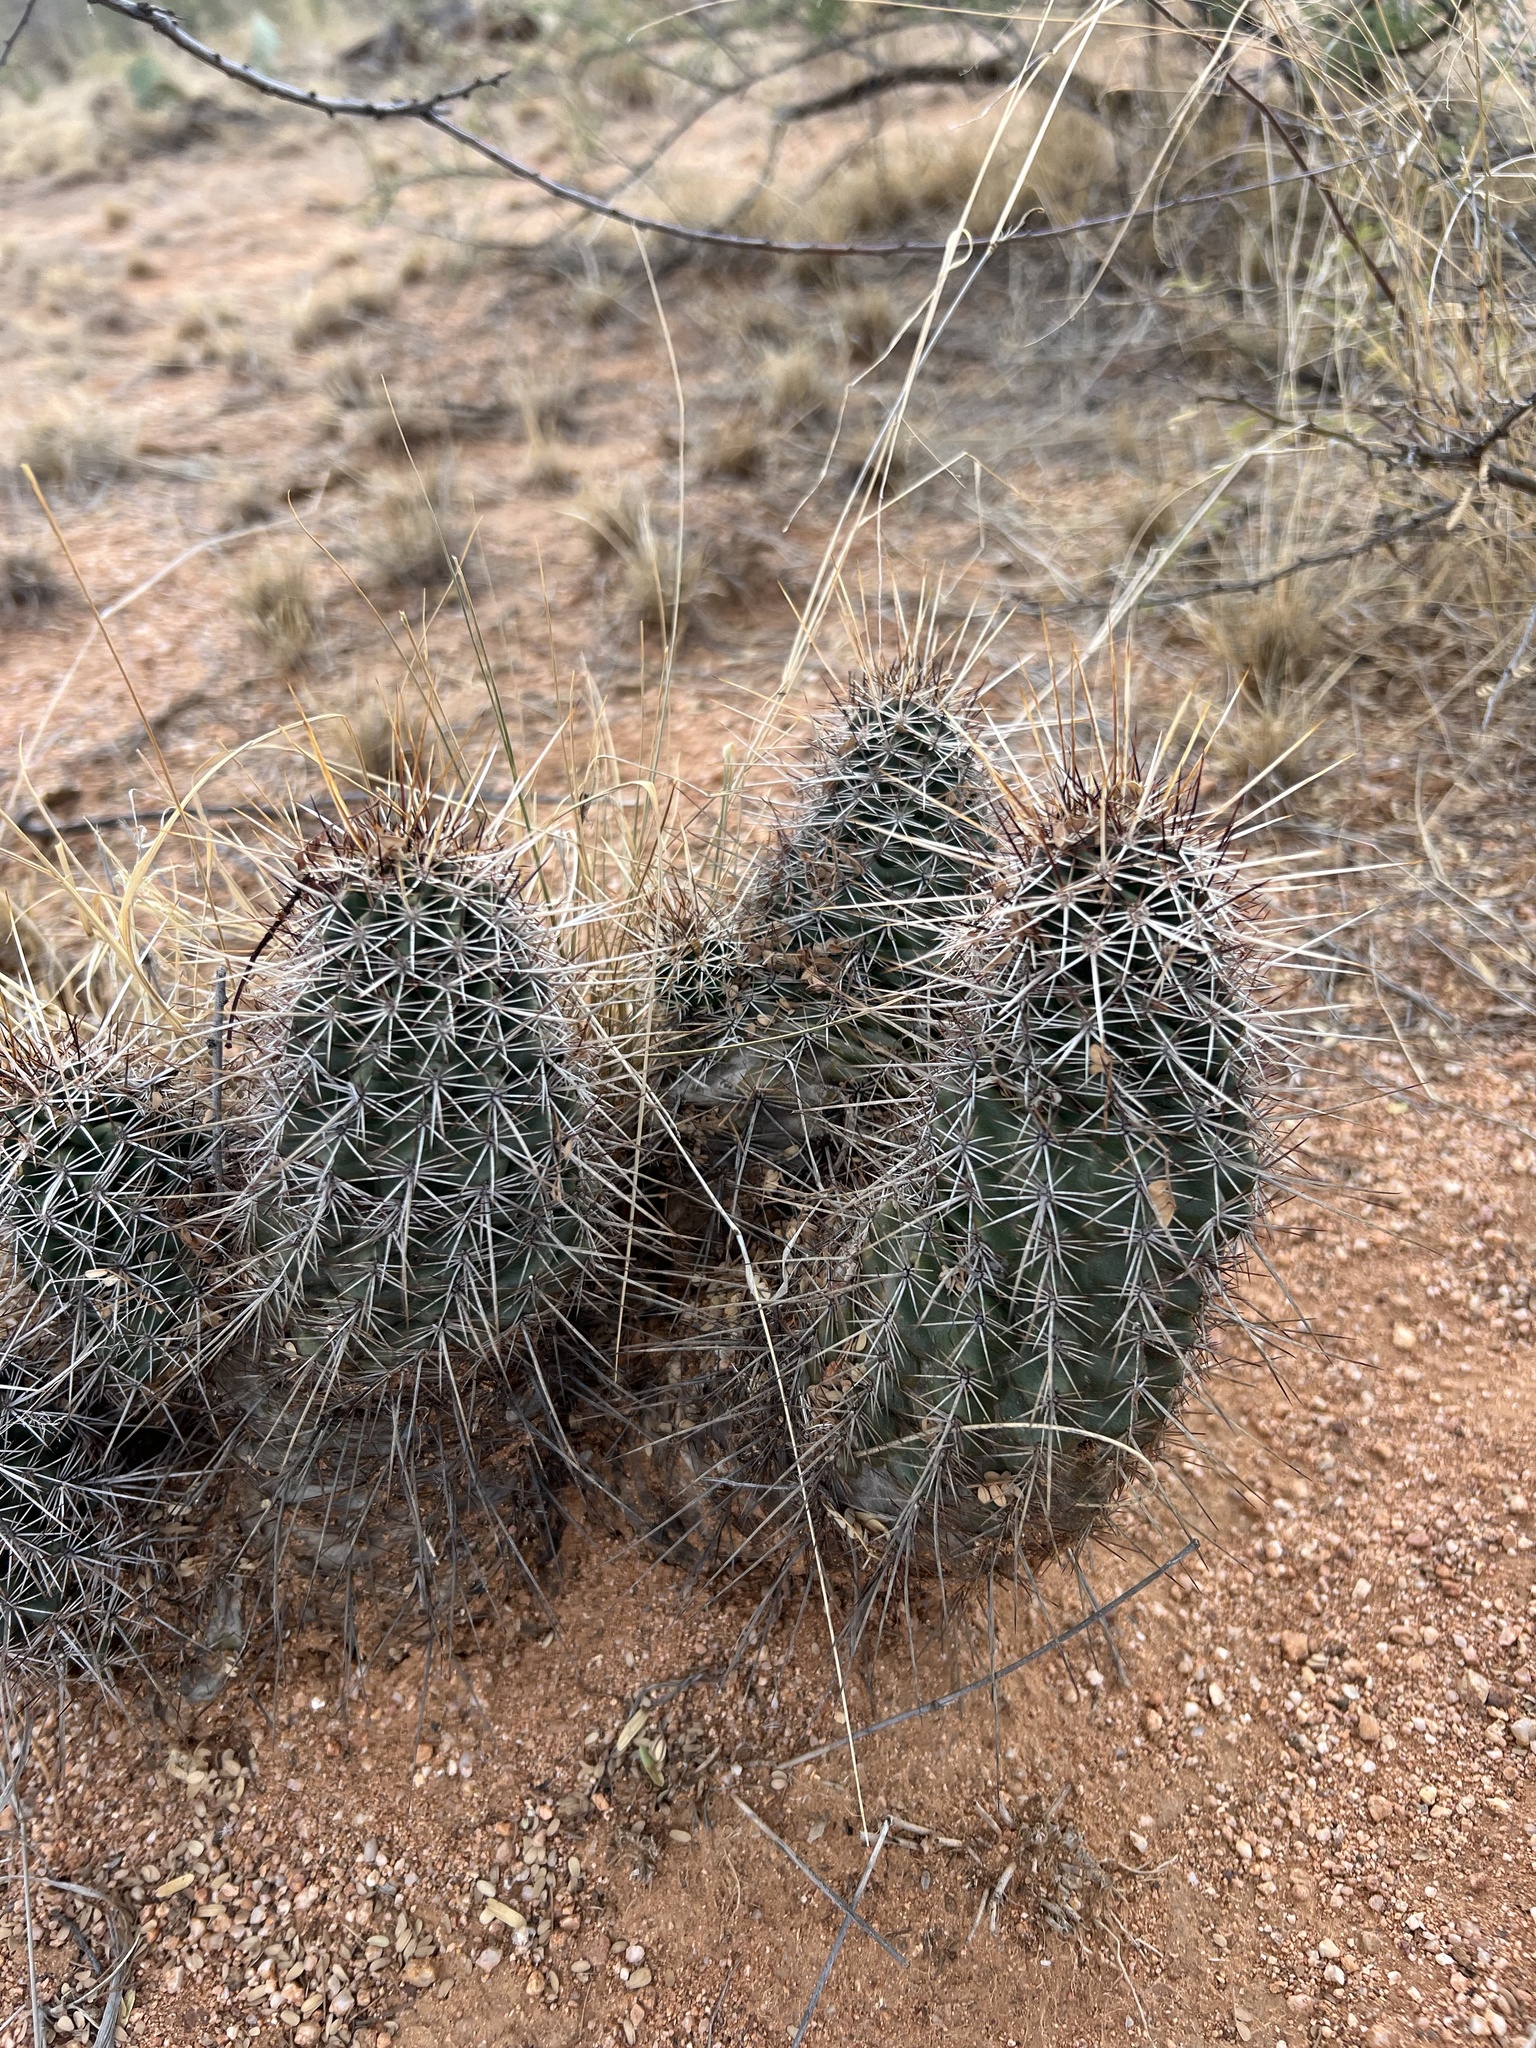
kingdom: Plantae
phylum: Tracheophyta
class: Magnoliopsida
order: Caryophyllales
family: Cactaceae
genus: Echinocereus
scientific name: Echinocereus fasciculatus
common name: Bundle hedgehog
